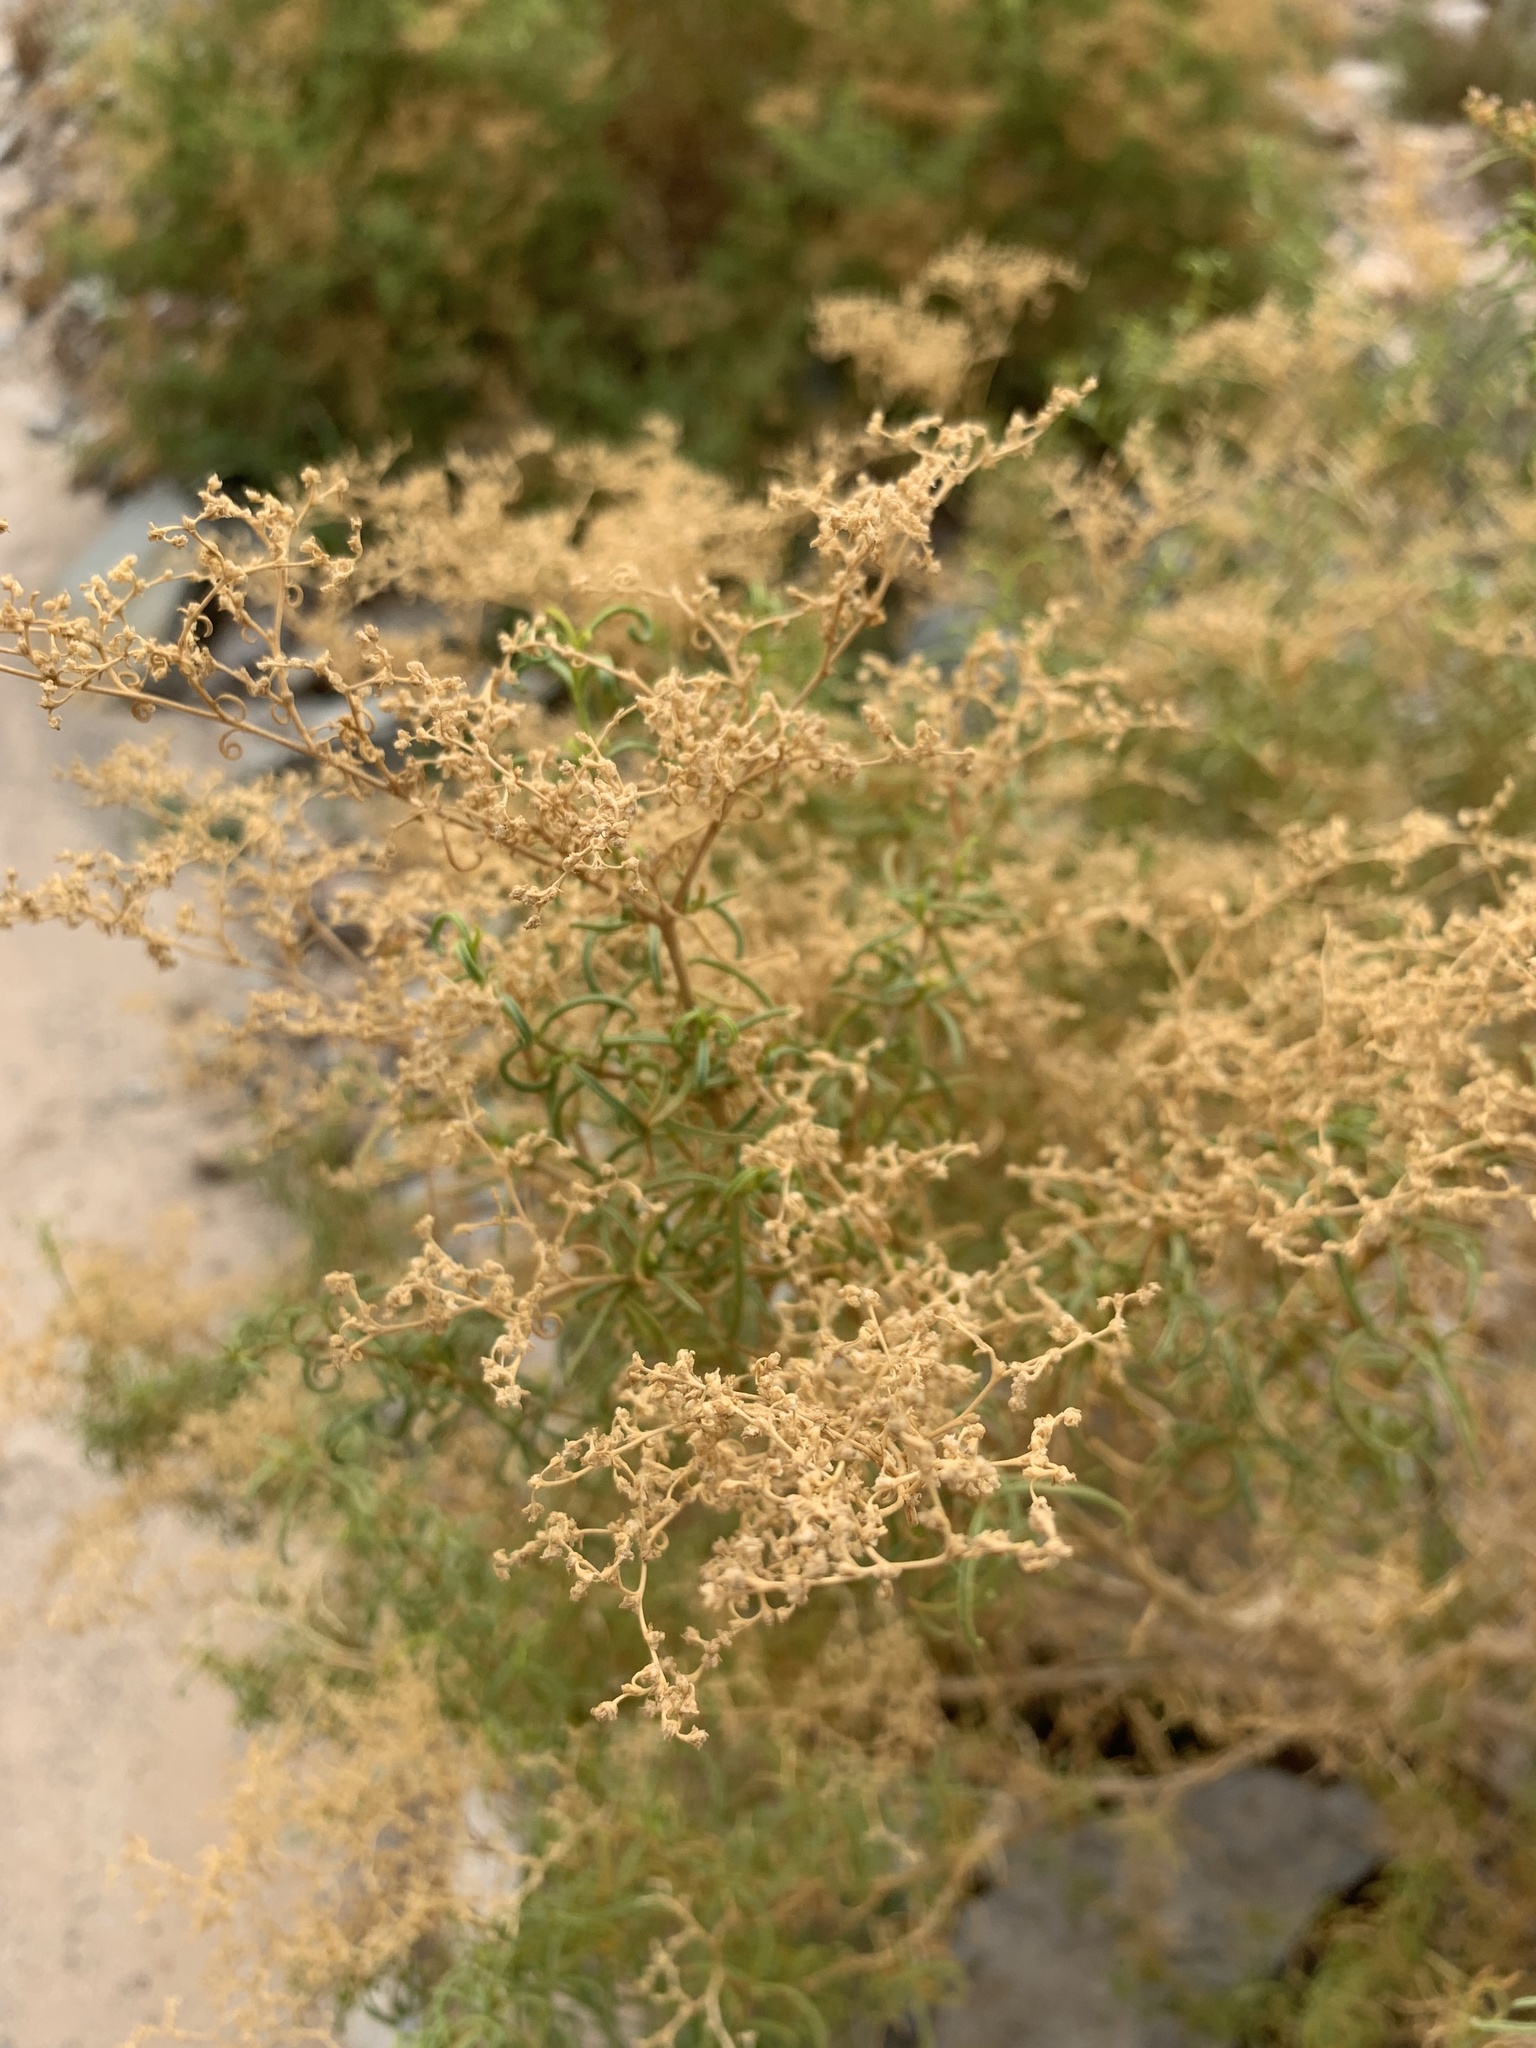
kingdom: Plantae
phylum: Tracheophyta
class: Magnoliopsida
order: Caryophyllales
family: Aizoaceae
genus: Aizoon
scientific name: Aizoon africanum
